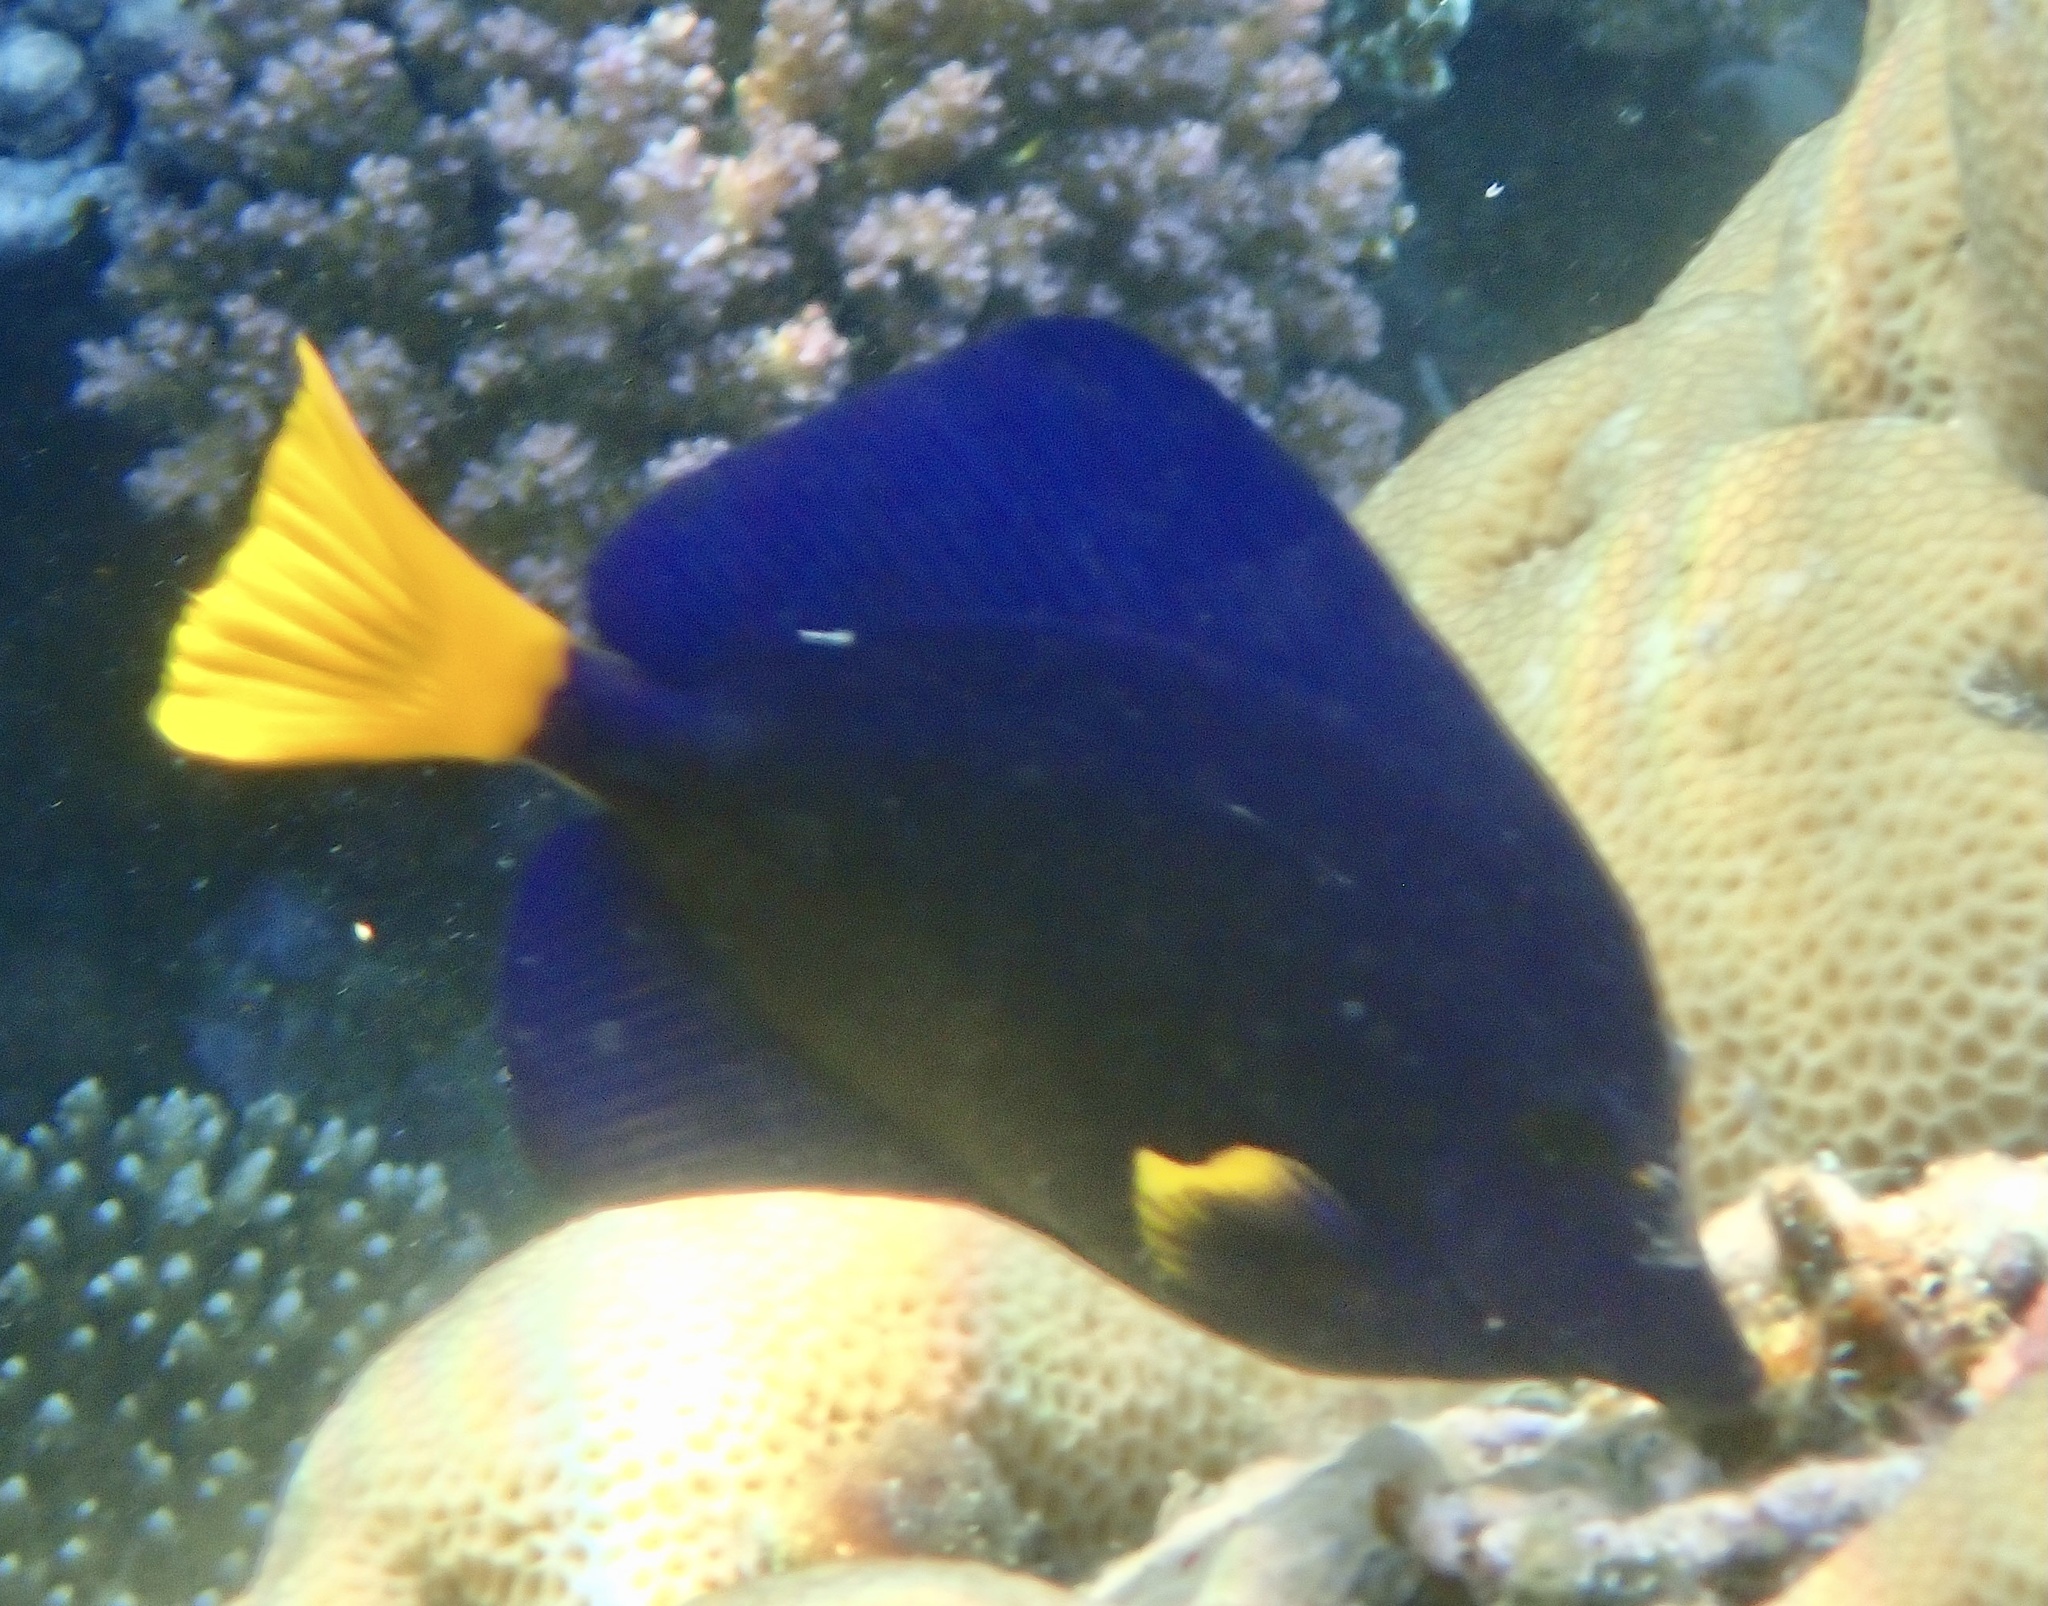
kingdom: Animalia
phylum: Chordata
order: Perciformes
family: Acanthuridae
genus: Zebrasoma
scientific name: Zebrasoma xanthurum
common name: Purple tang
